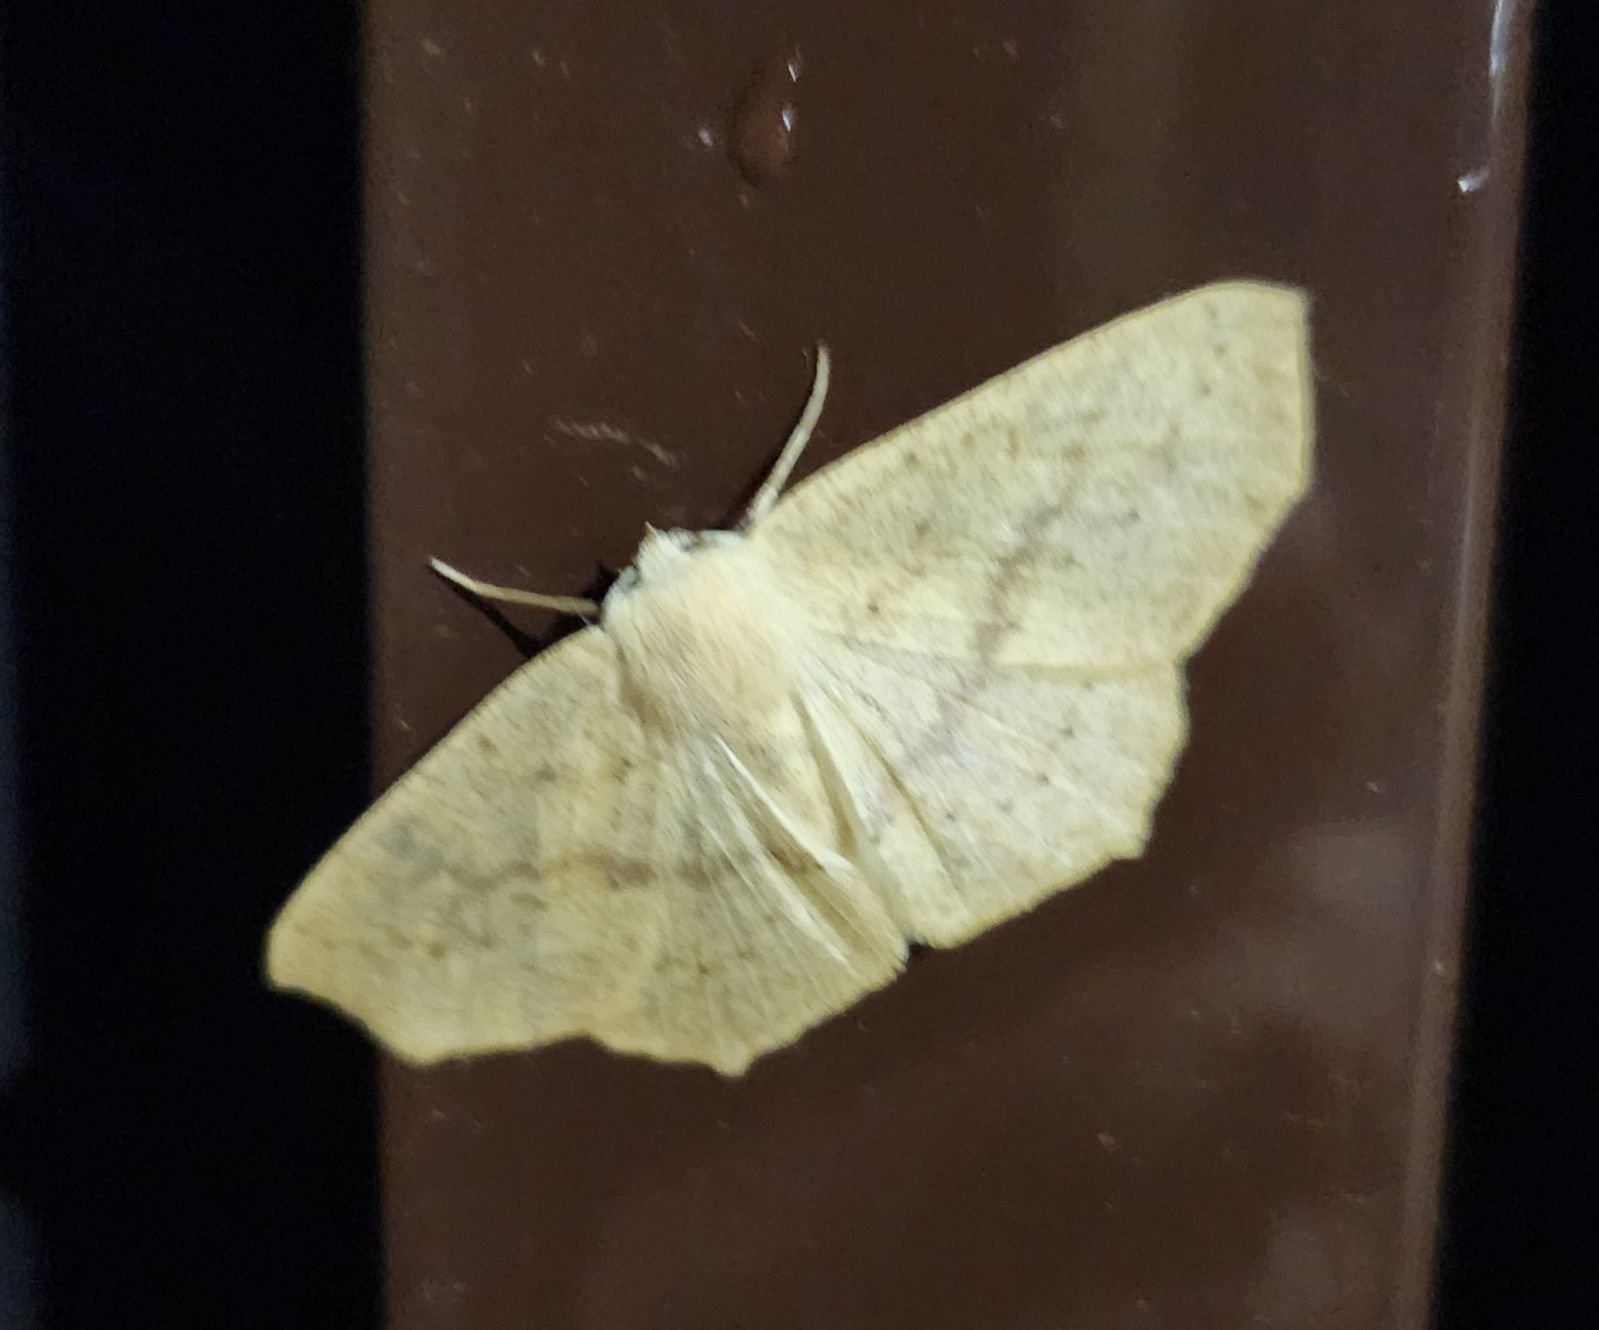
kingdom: Animalia
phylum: Arthropoda
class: Insecta
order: Lepidoptera
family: Geometridae
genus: Sabulodes
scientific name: Sabulodes aegrotata
